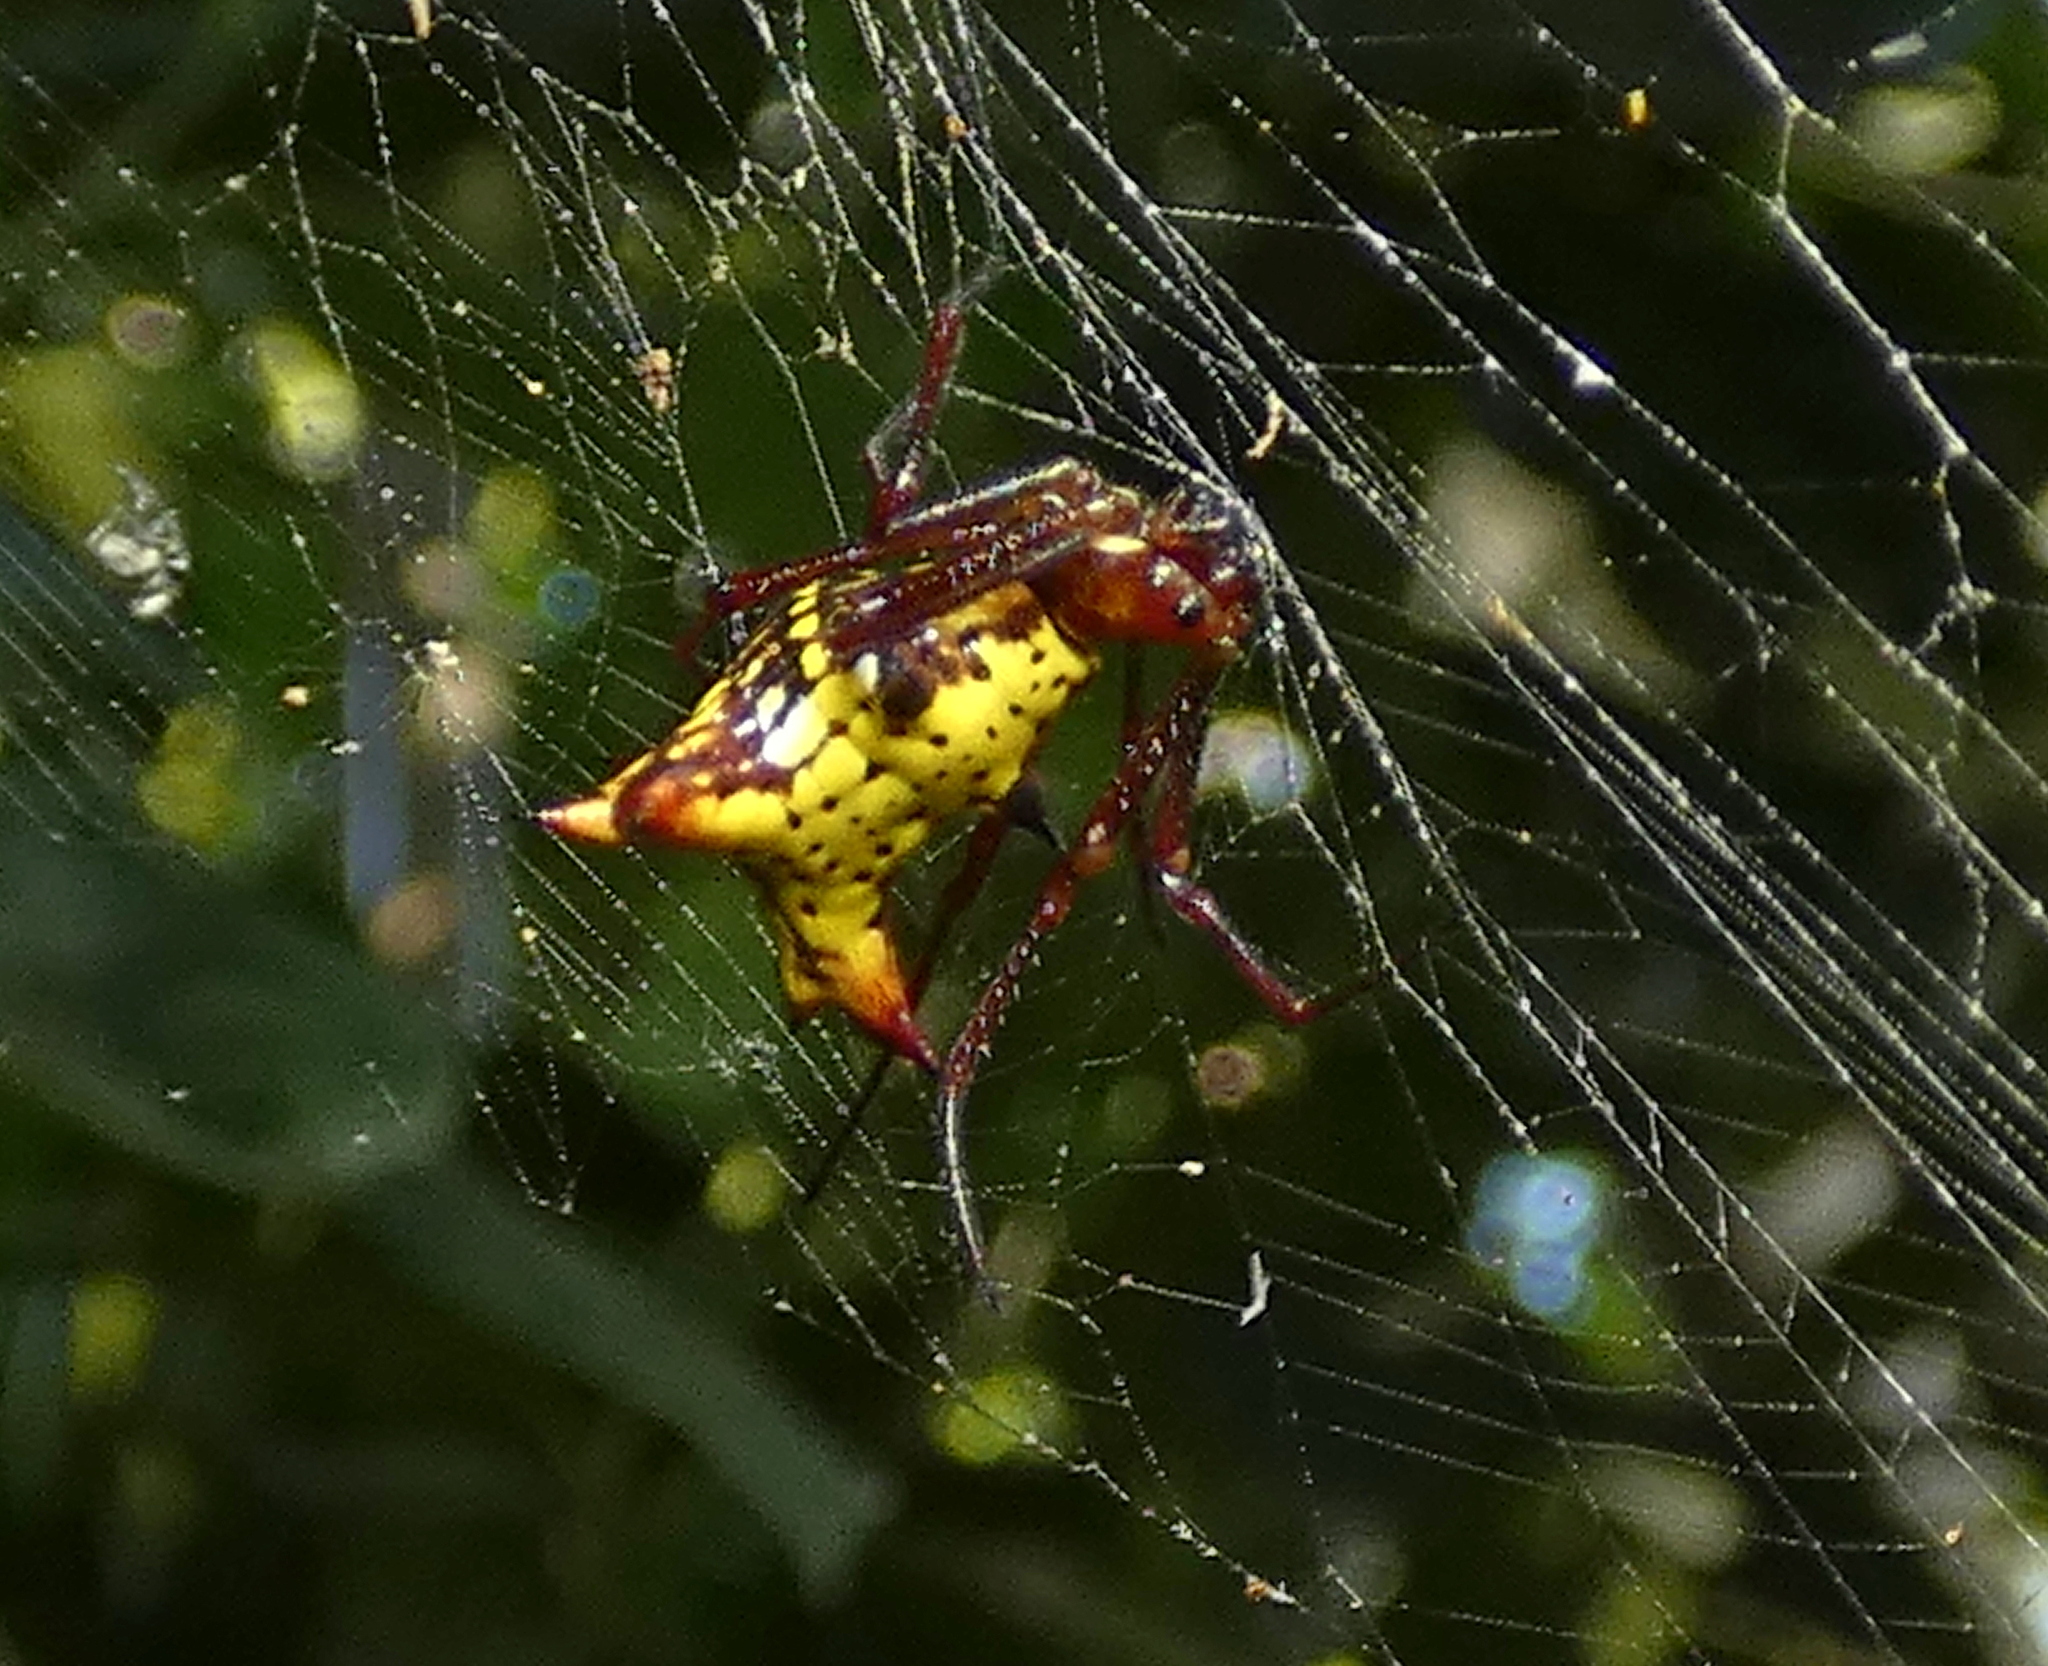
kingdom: Animalia
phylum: Arthropoda
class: Arachnida
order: Araneae
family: Araneidae
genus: Micrathena
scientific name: Micrathena fissispina
